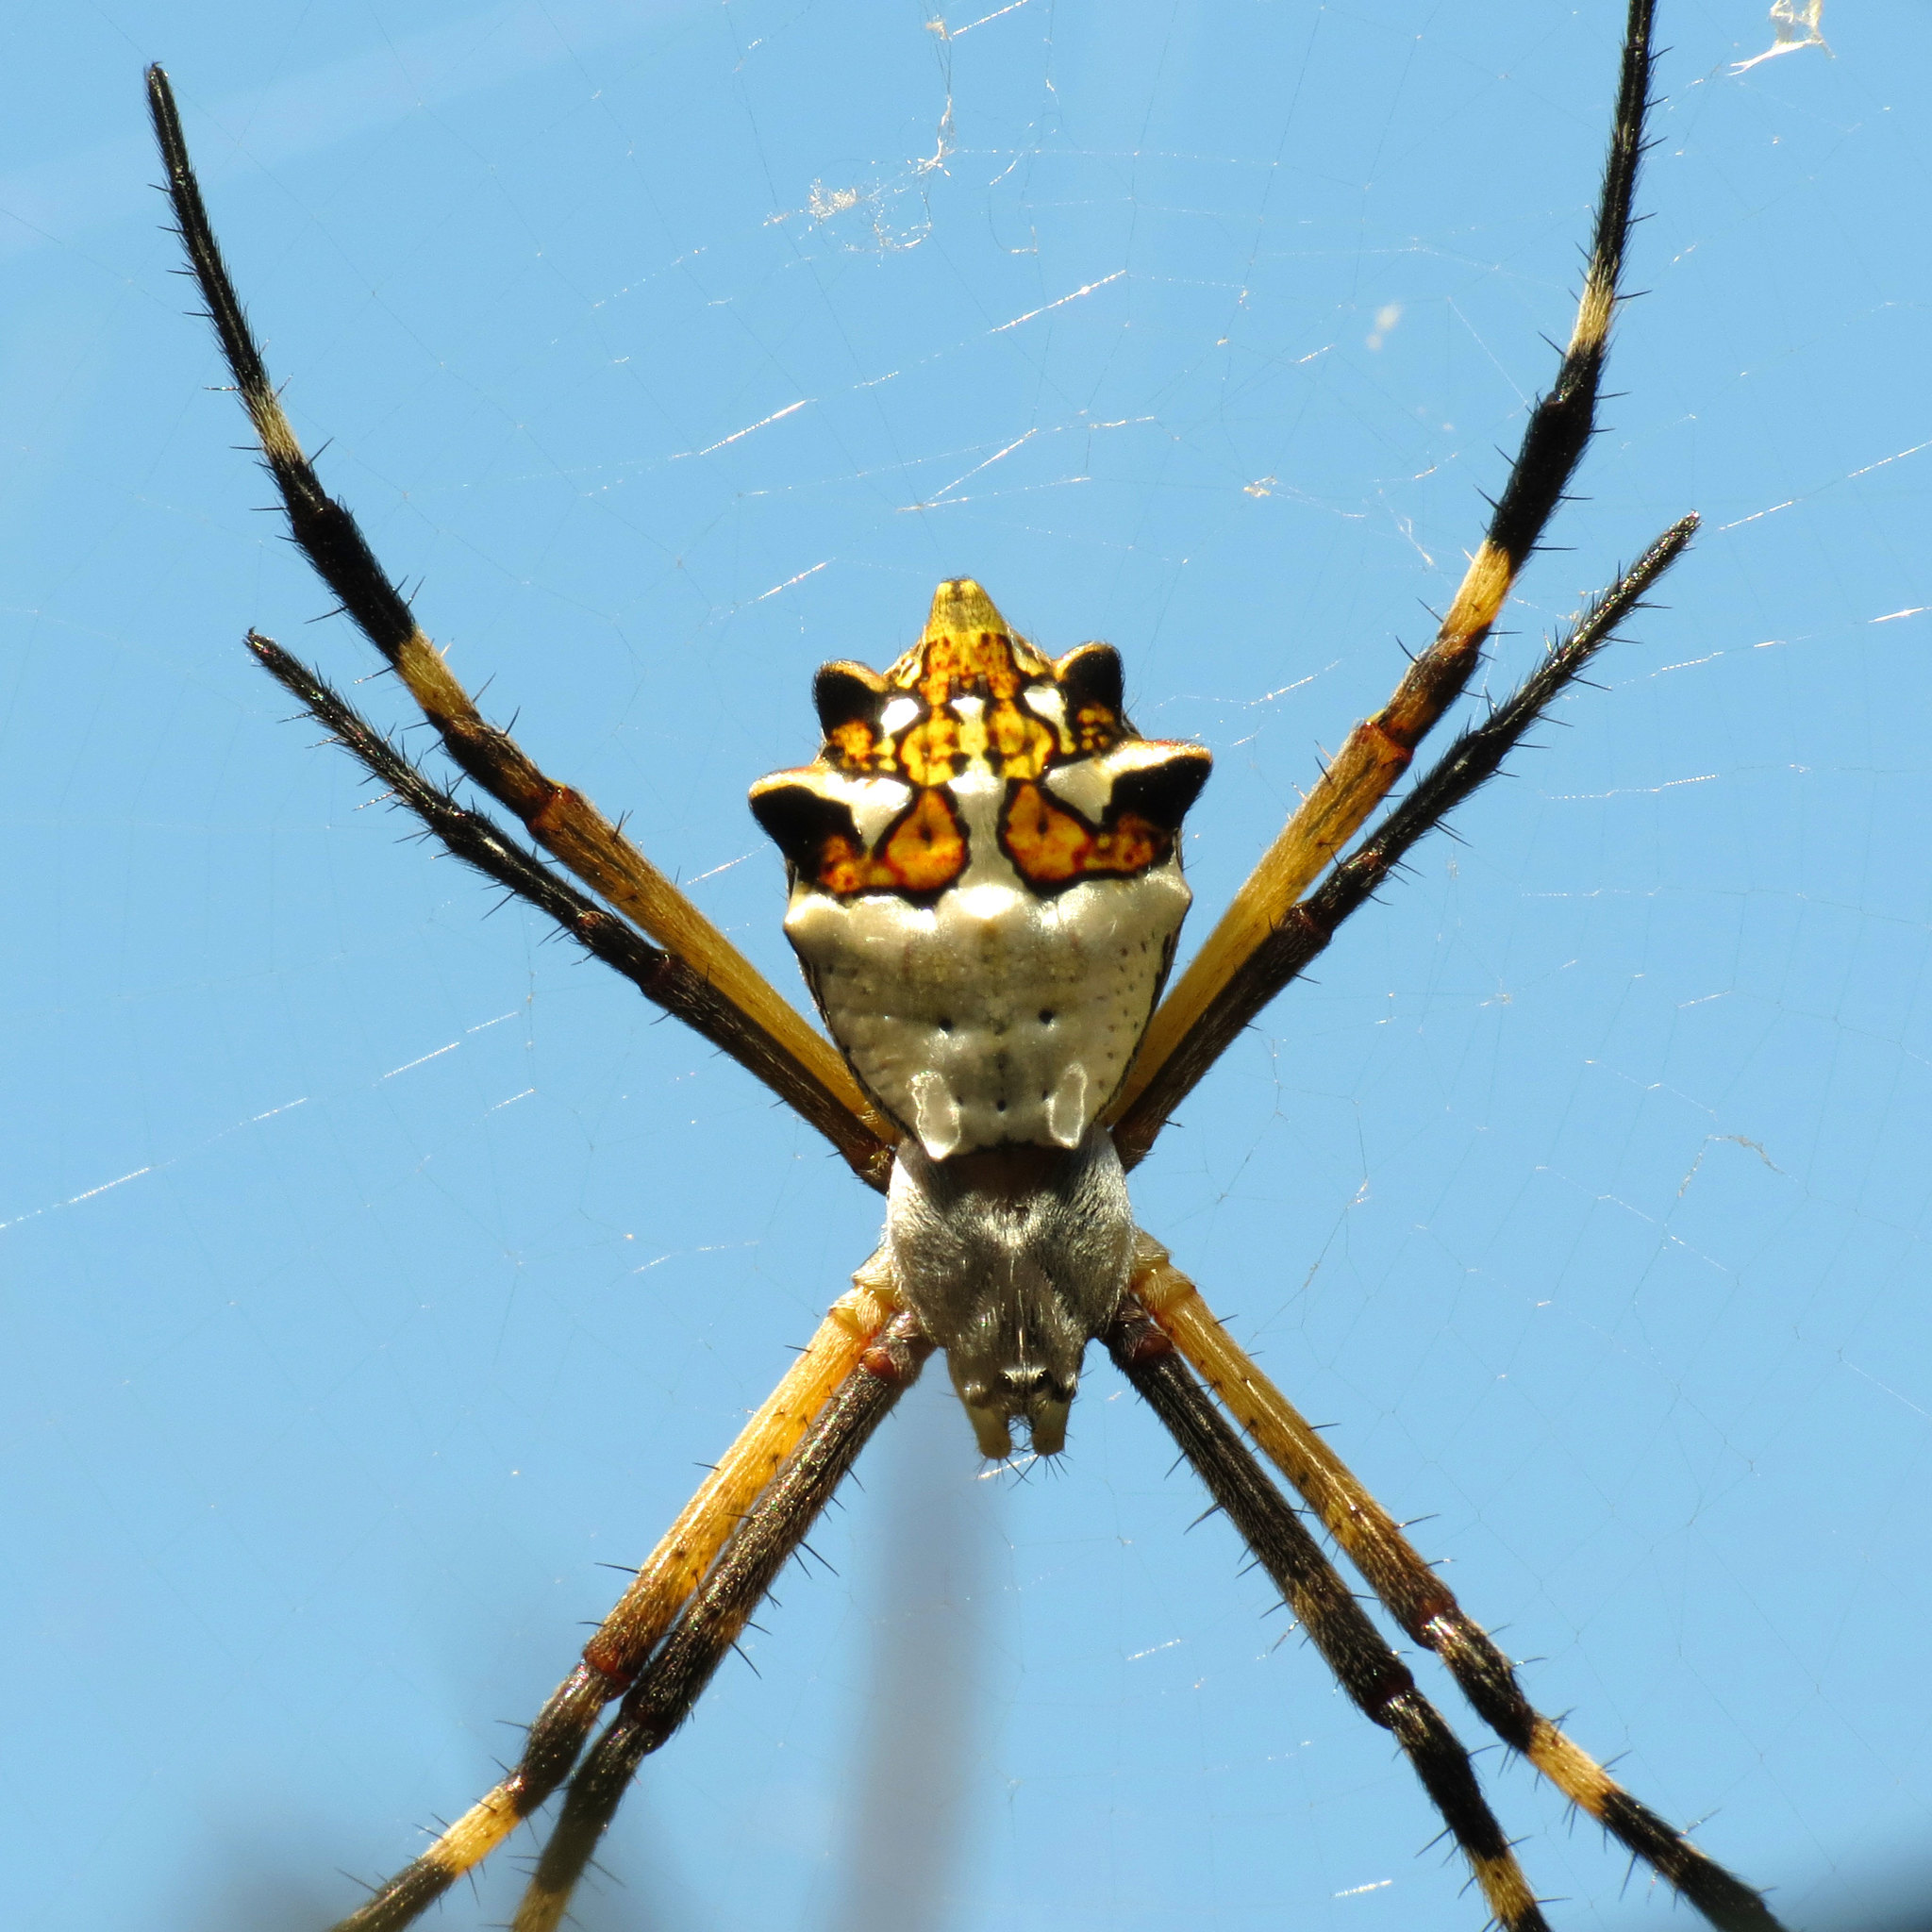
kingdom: Animalia
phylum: Arthropoda
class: Arachnida
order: Araneae
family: Araneidae
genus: Argiope
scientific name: Argiope argentata
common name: Orb weavers
